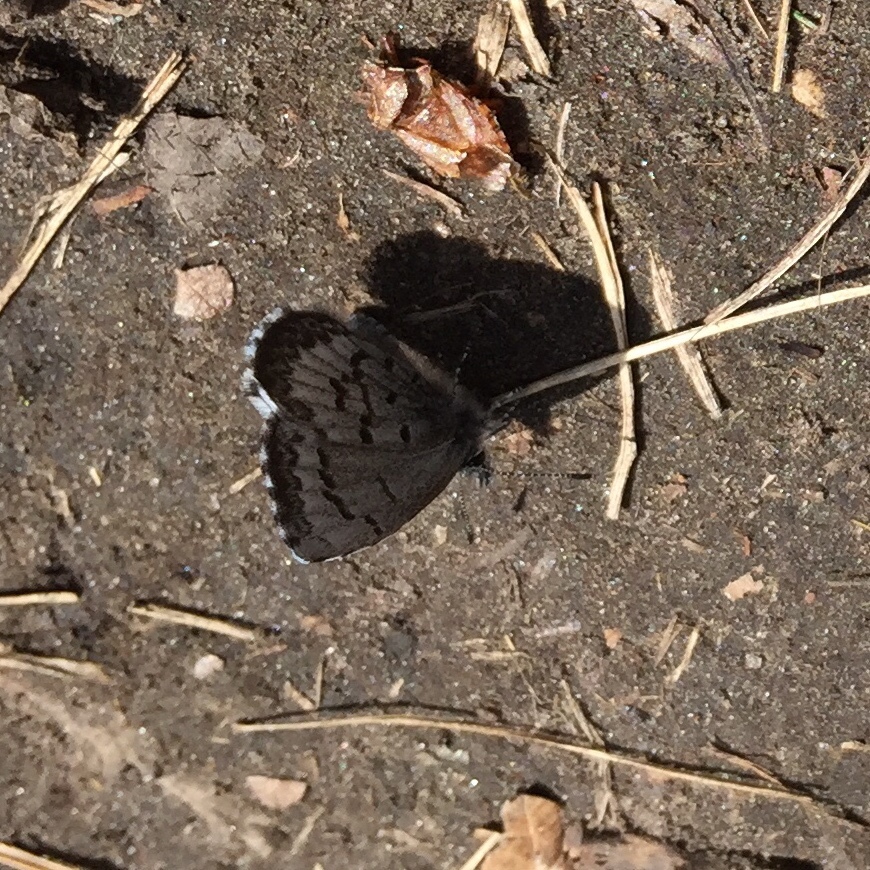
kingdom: Animalia
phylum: Arthropoda
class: Insecta
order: Lepidoptera
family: Lycaenidae
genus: Celastrina
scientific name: Celastrina lucia
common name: Lucia azure
